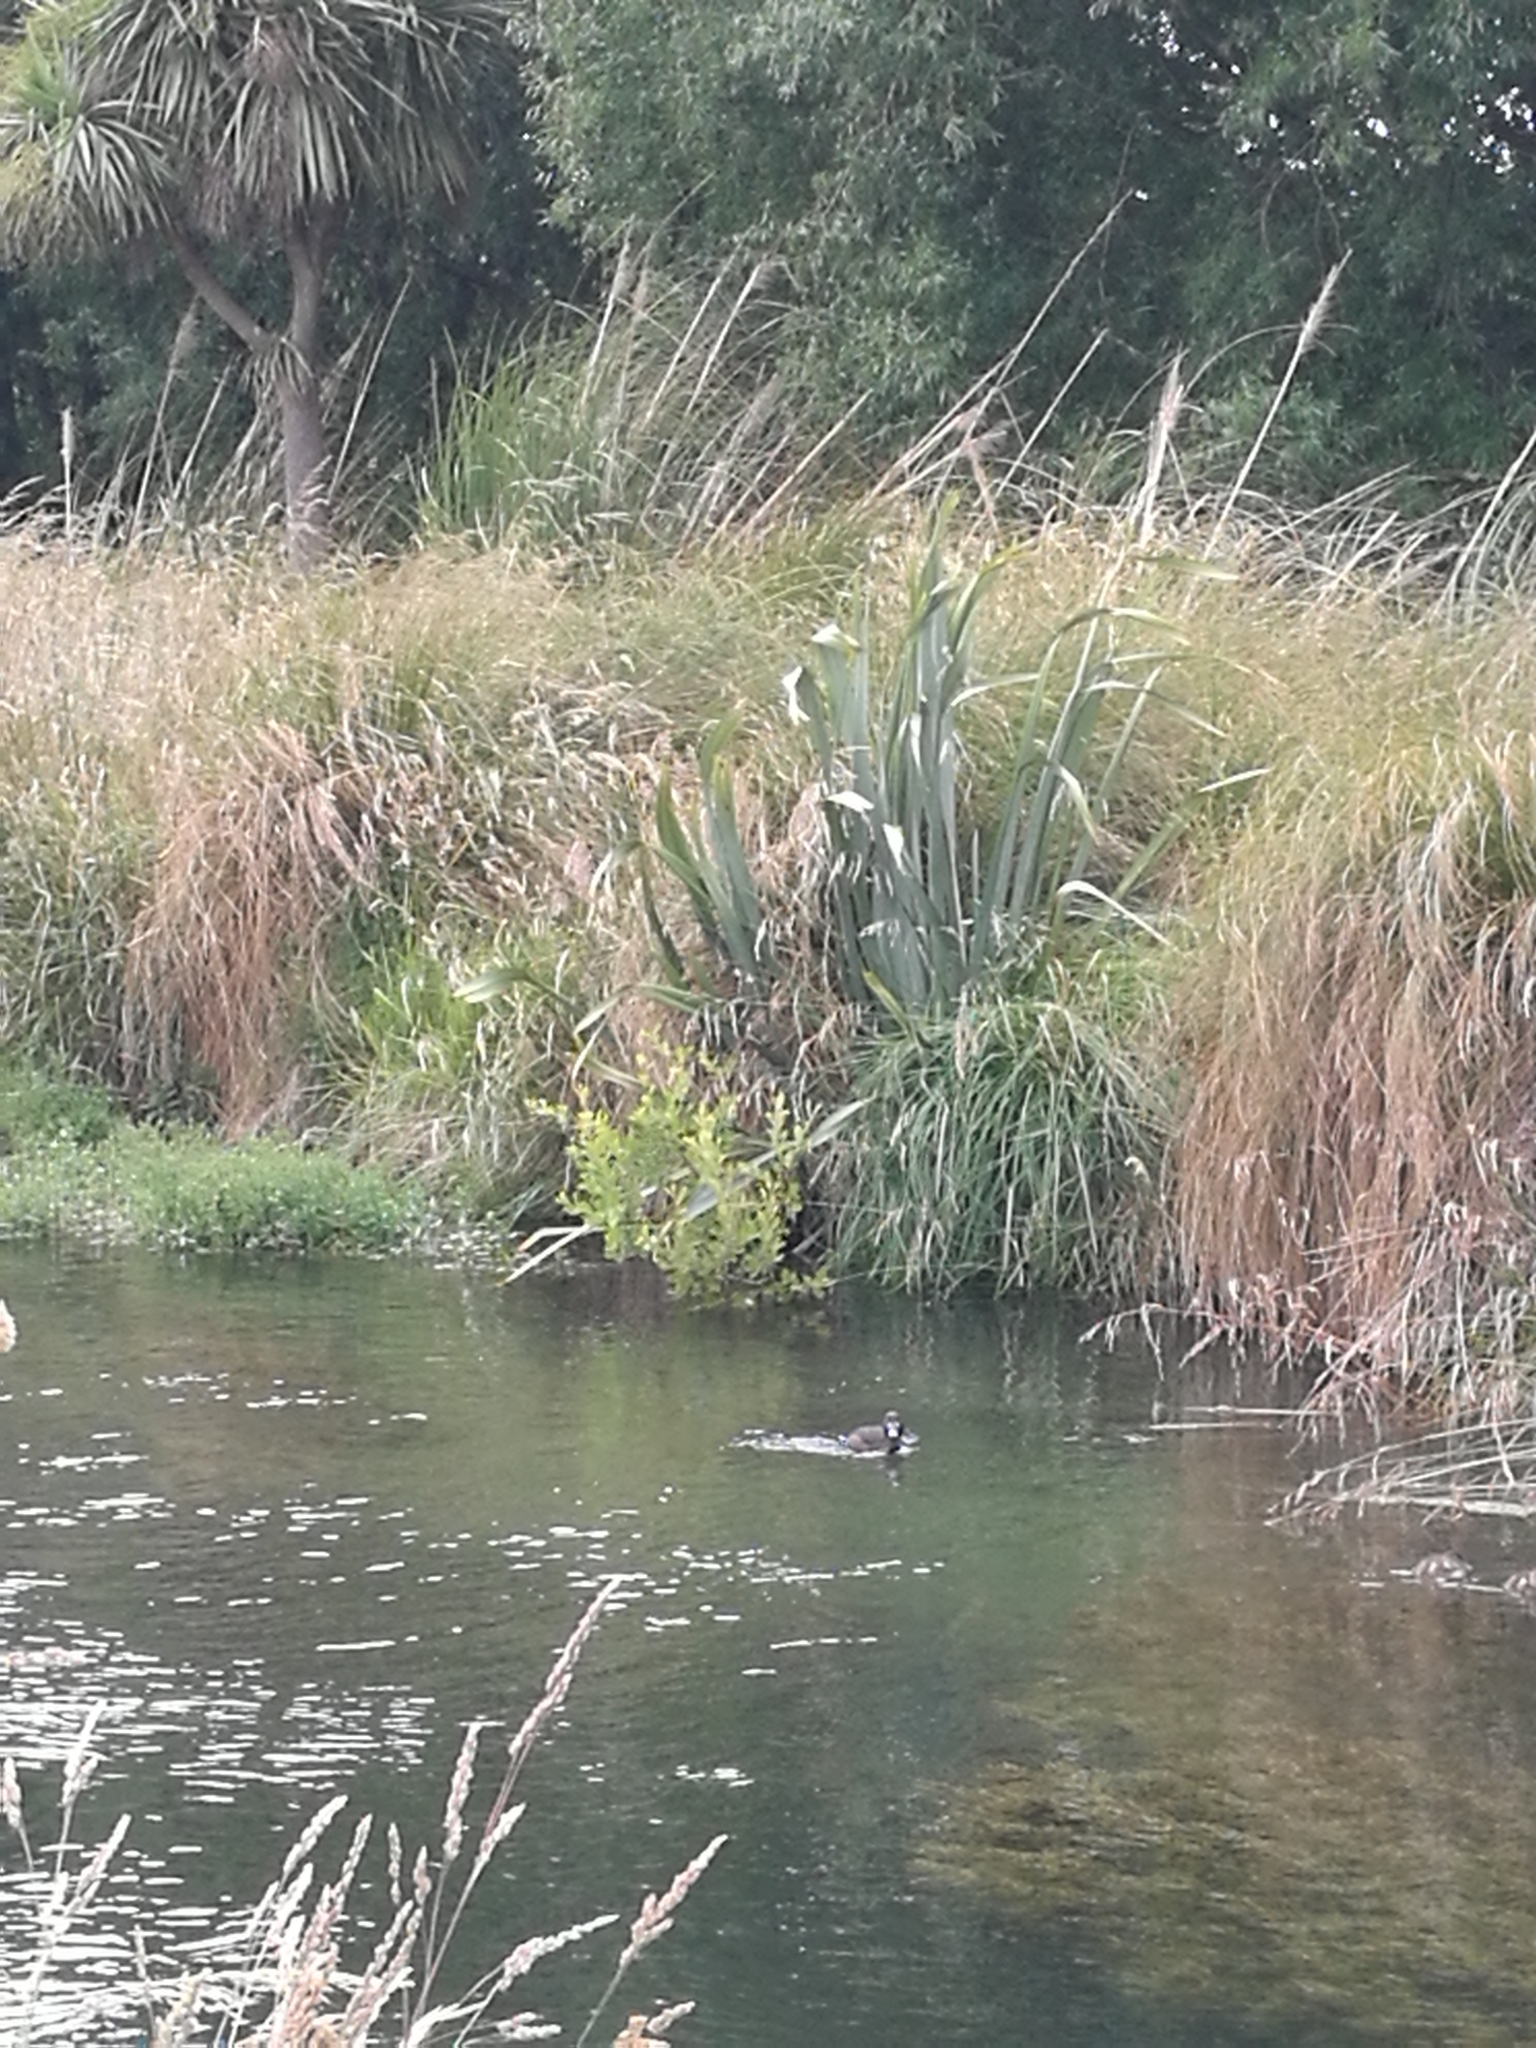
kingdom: Animalia
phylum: Chordata
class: Aves
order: Anseriformes
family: Anatidae
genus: Aythya
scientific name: Aythya novaeseelandiae
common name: New zealand scaup
